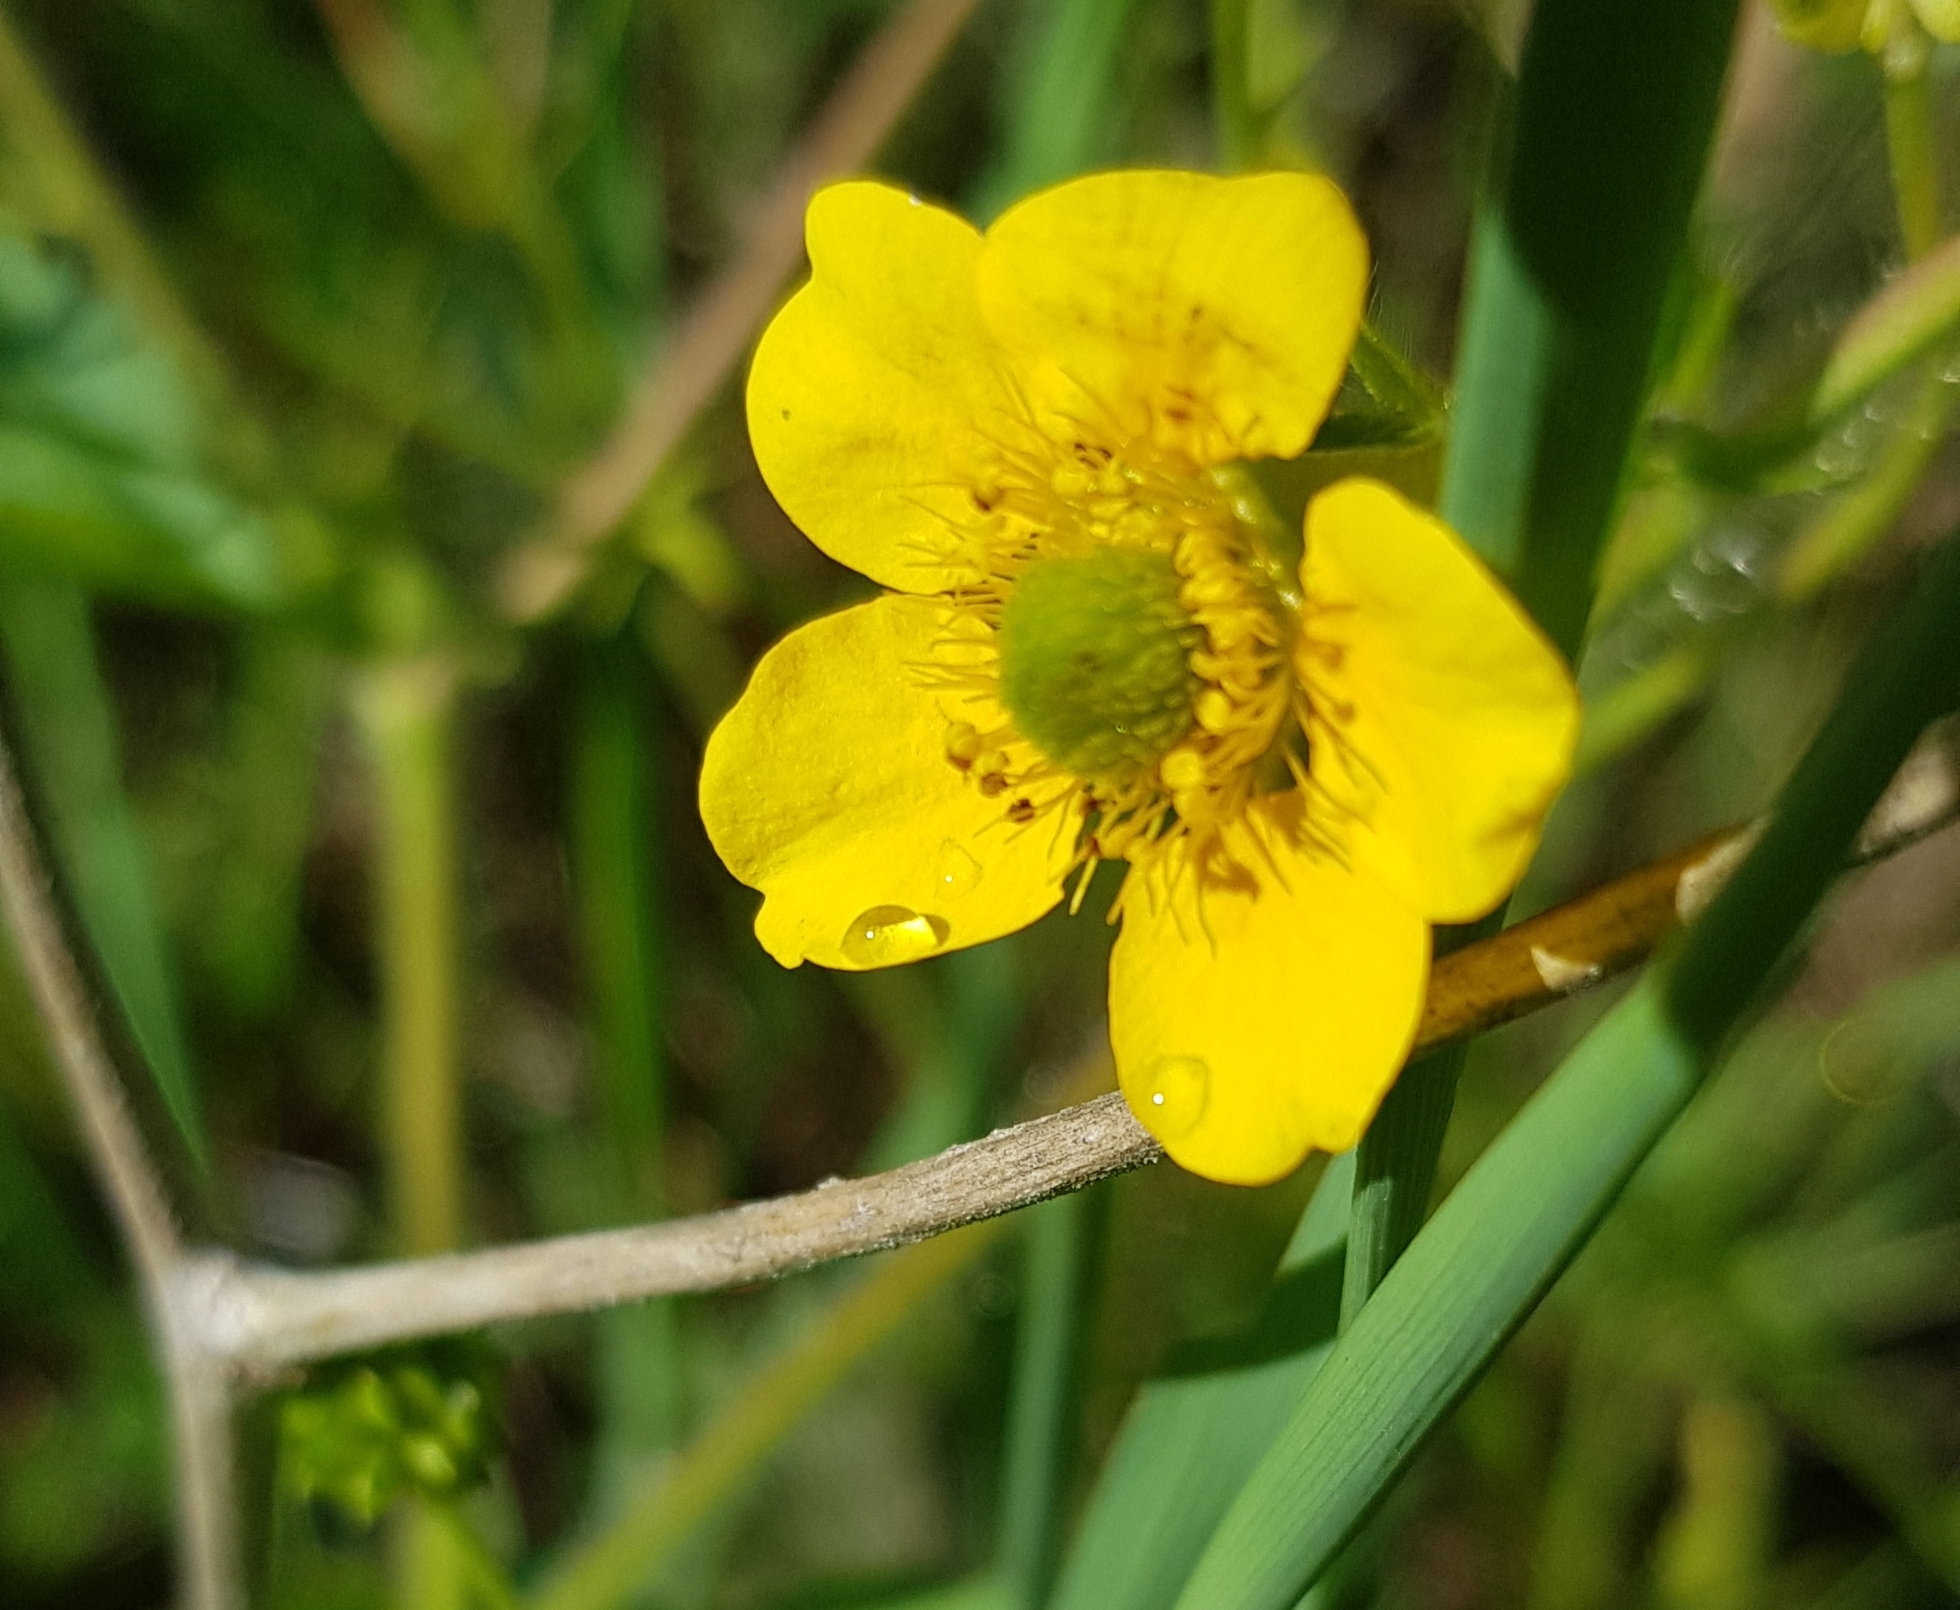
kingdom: Plantae
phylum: Tracheophyta
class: Magnoliopsida
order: Rosales
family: Rosaceae
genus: Geum
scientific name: Geum aleppicum
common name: Yellow avens
